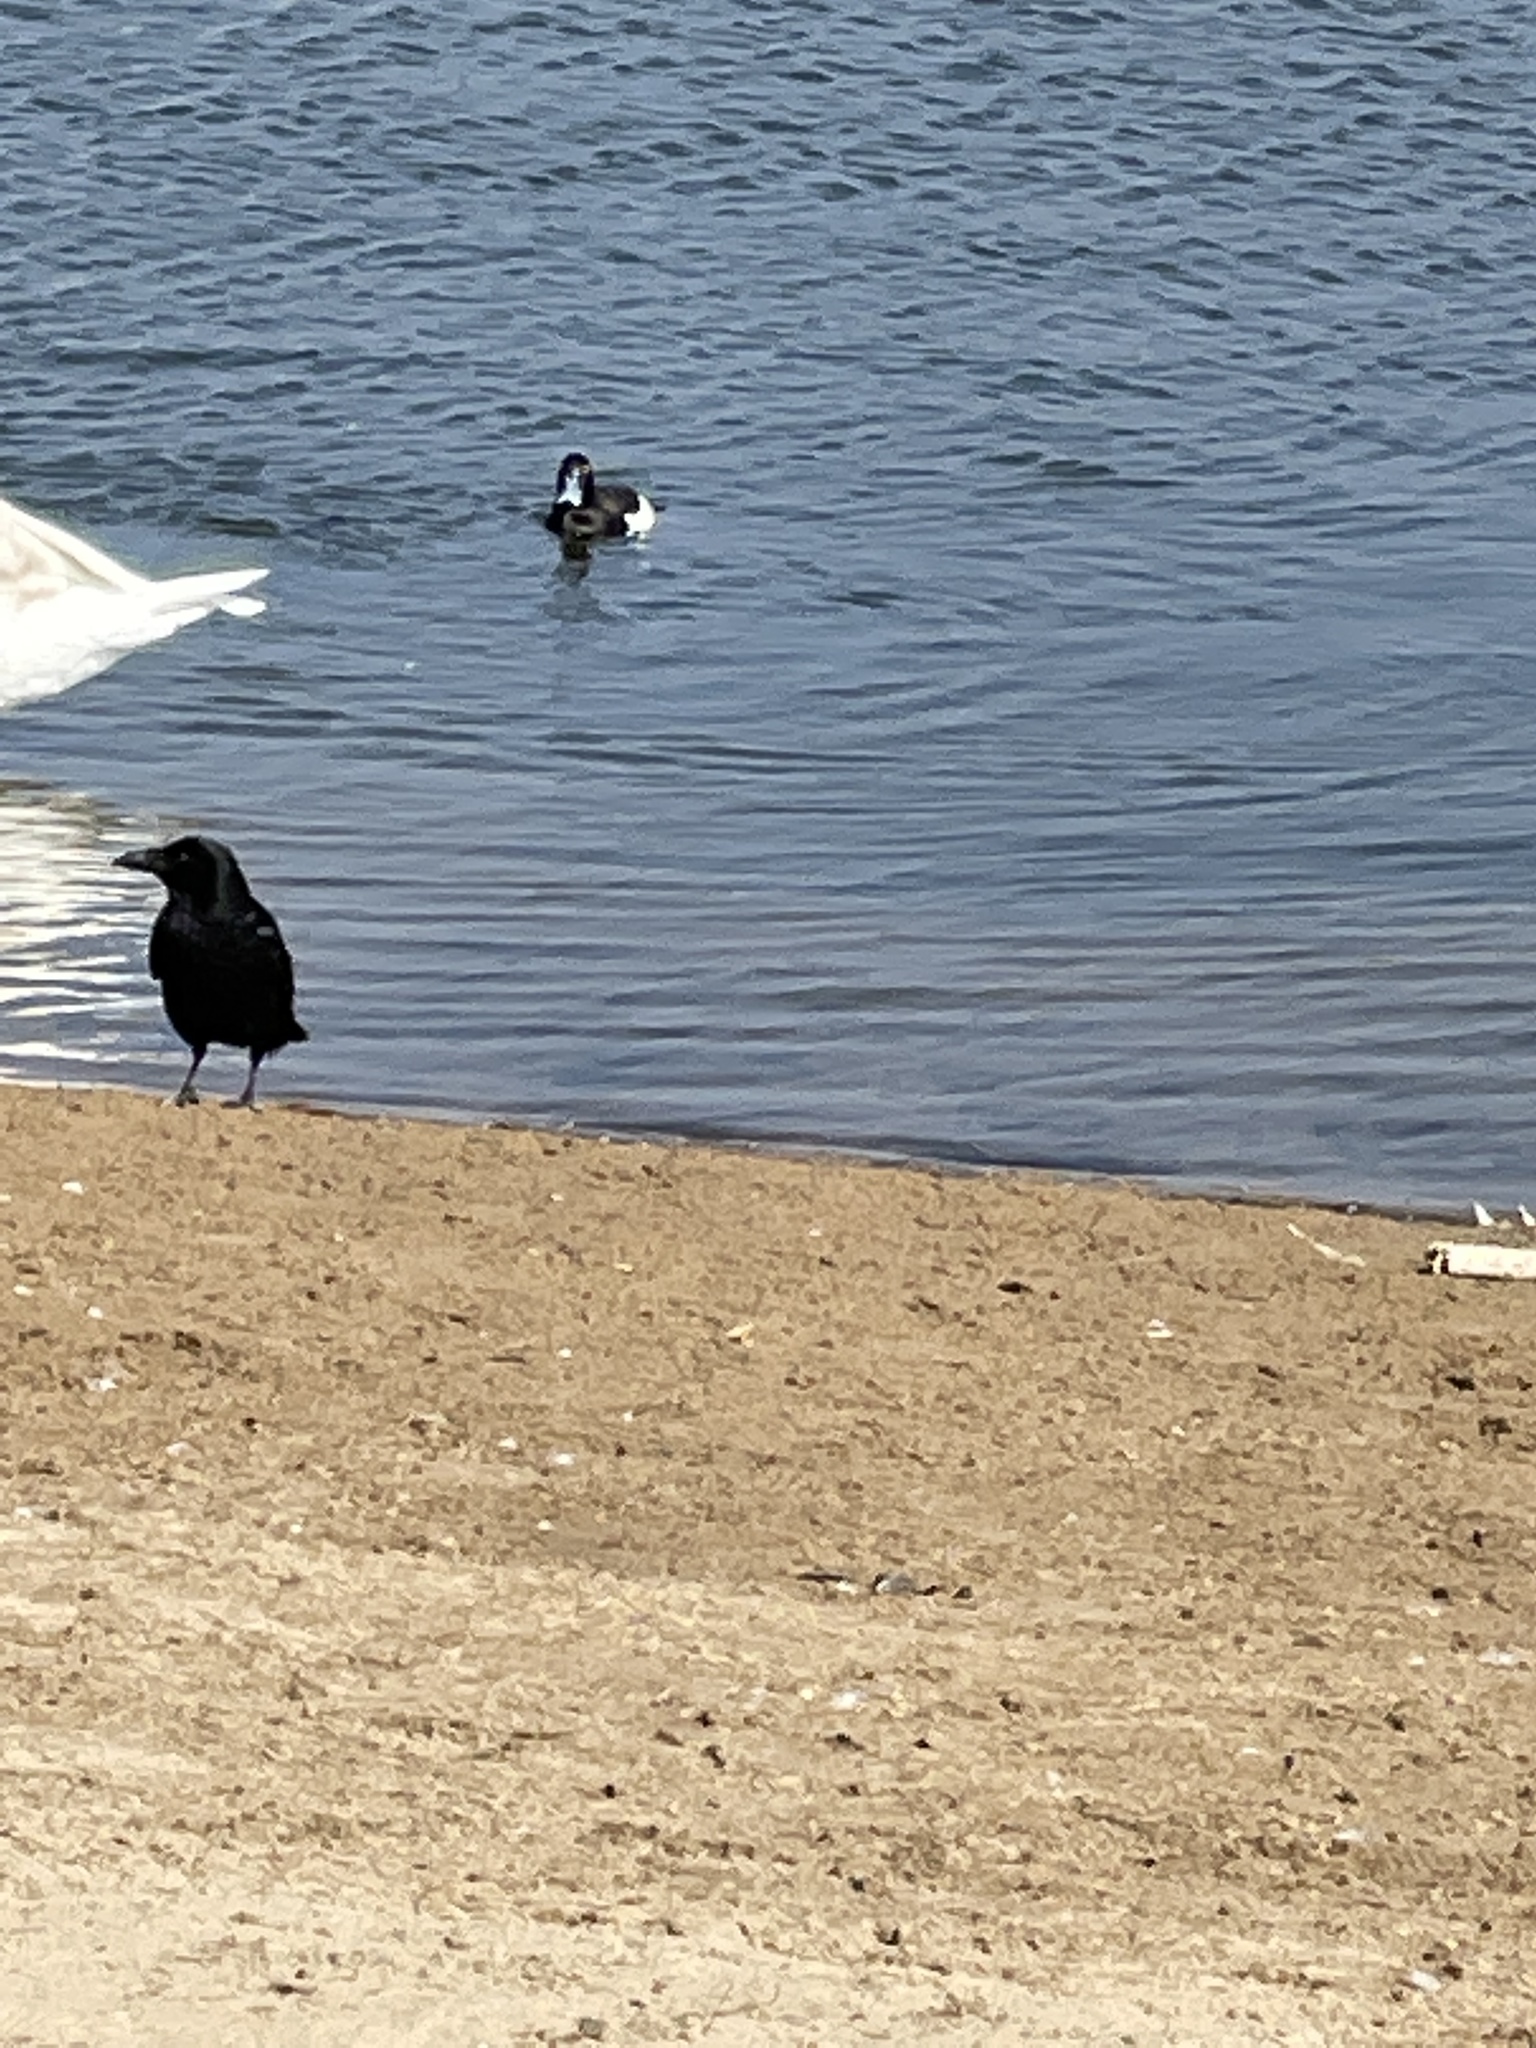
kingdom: Animalia
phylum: Chordata
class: Aves
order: Anseriformes
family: Anatidae
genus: Aythya
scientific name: Aythya fuligula
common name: Tufted duck
